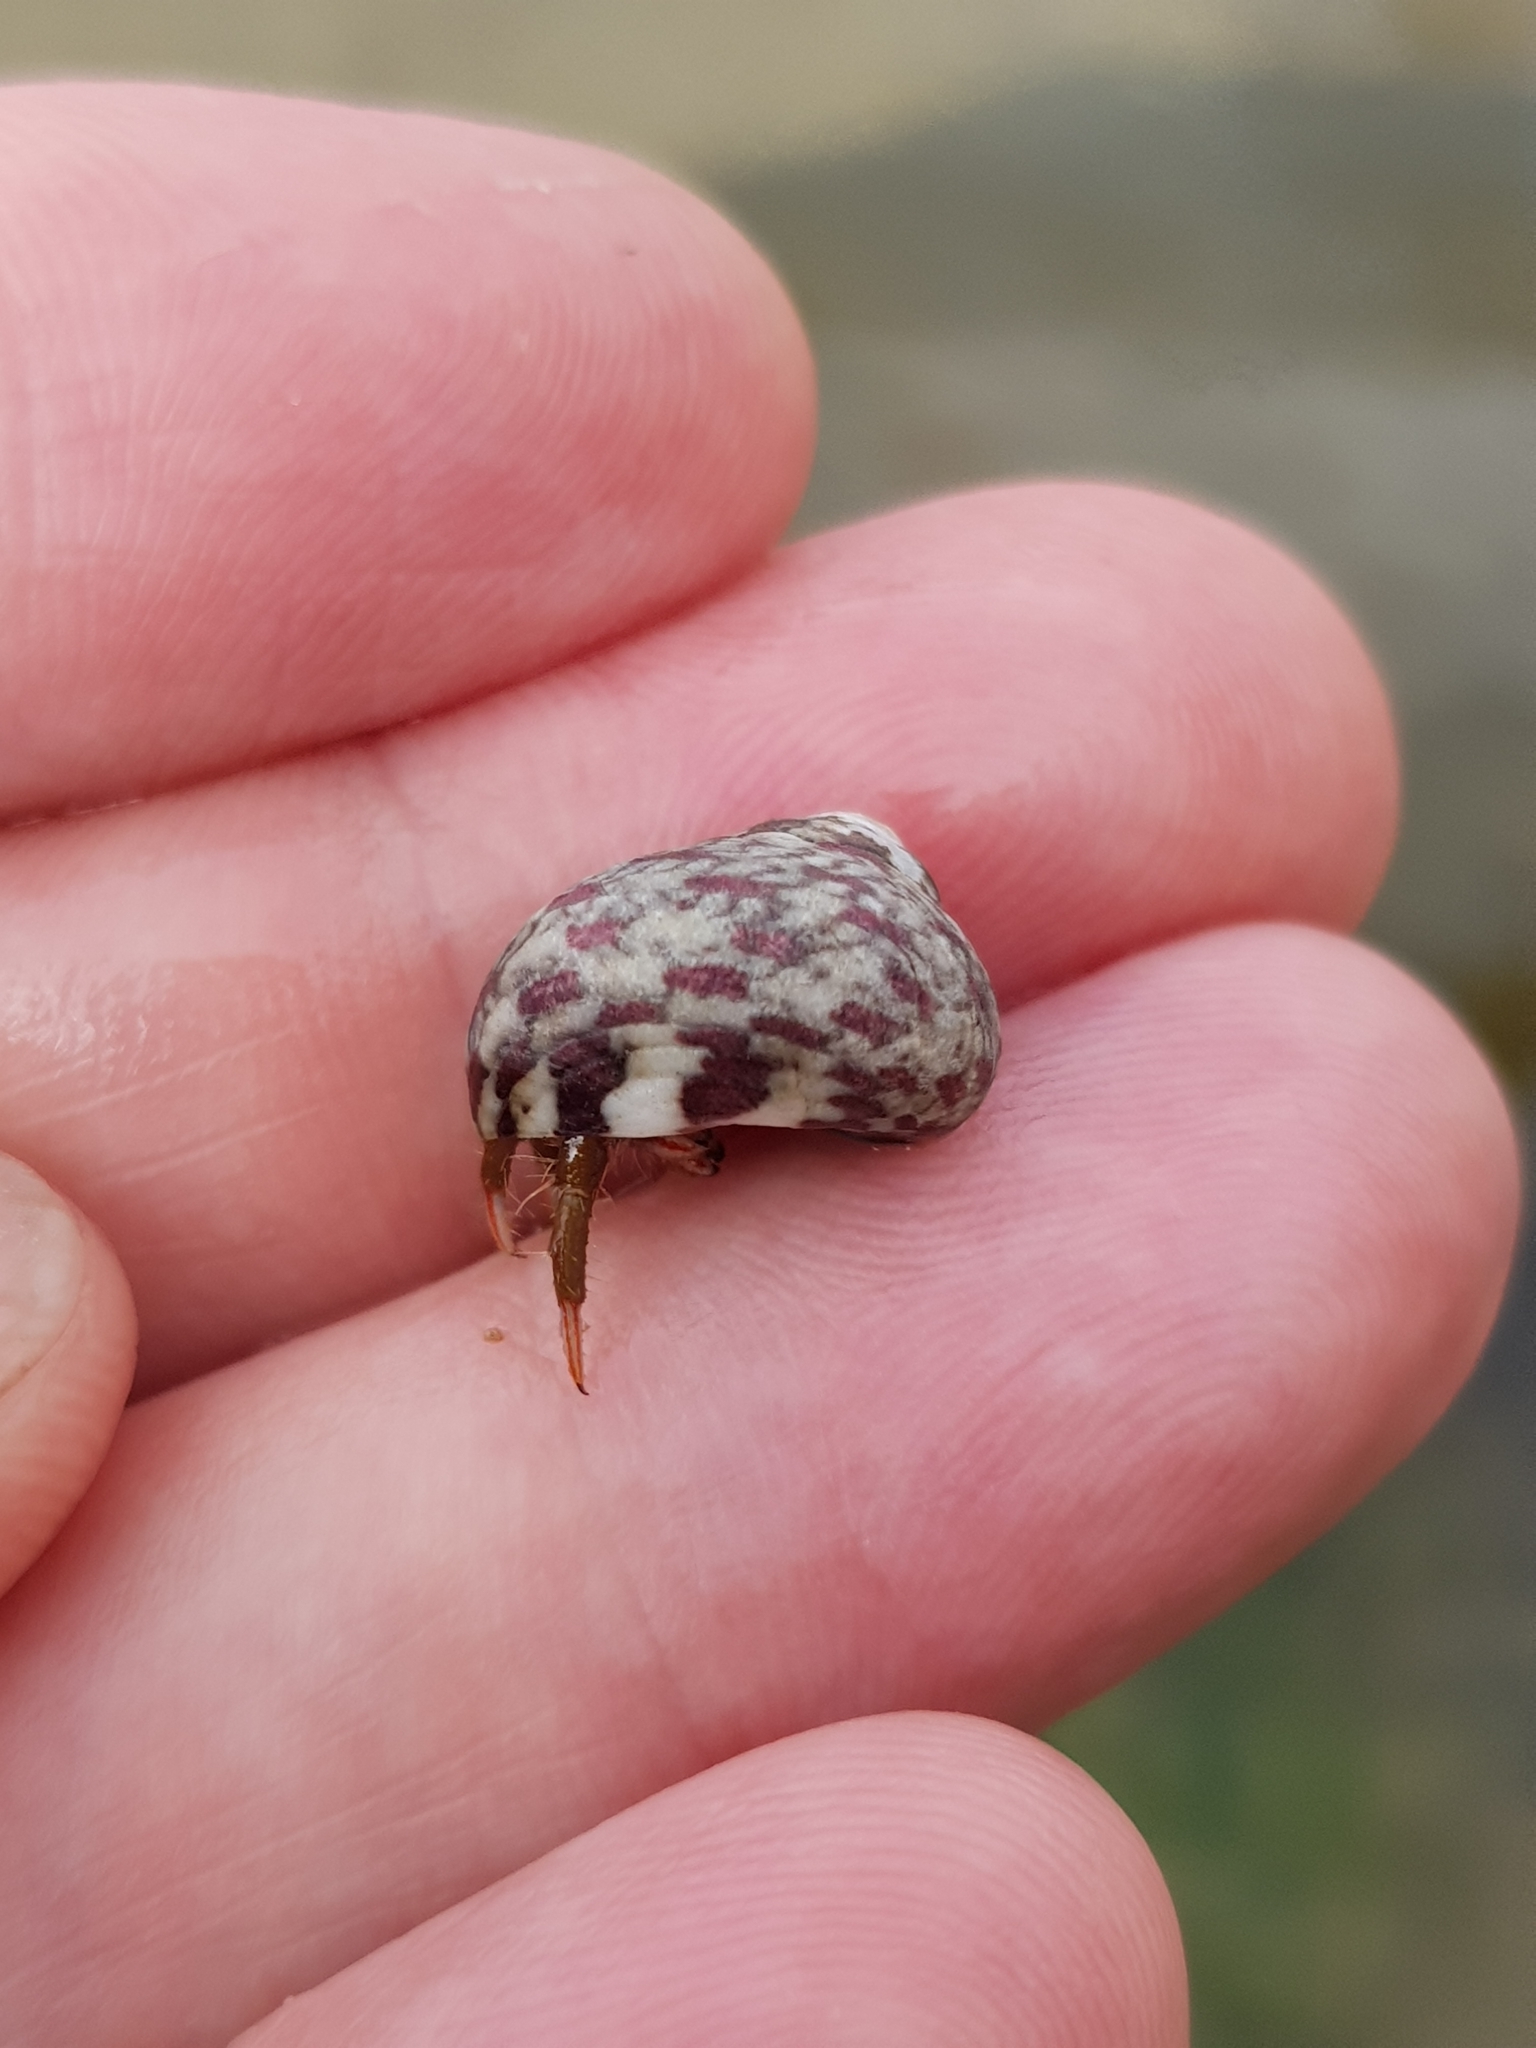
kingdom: Animalia
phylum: Mollusca
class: Gastropoda
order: Trochida
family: Trochidae
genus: Phorcus
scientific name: Phorcus articulatus
